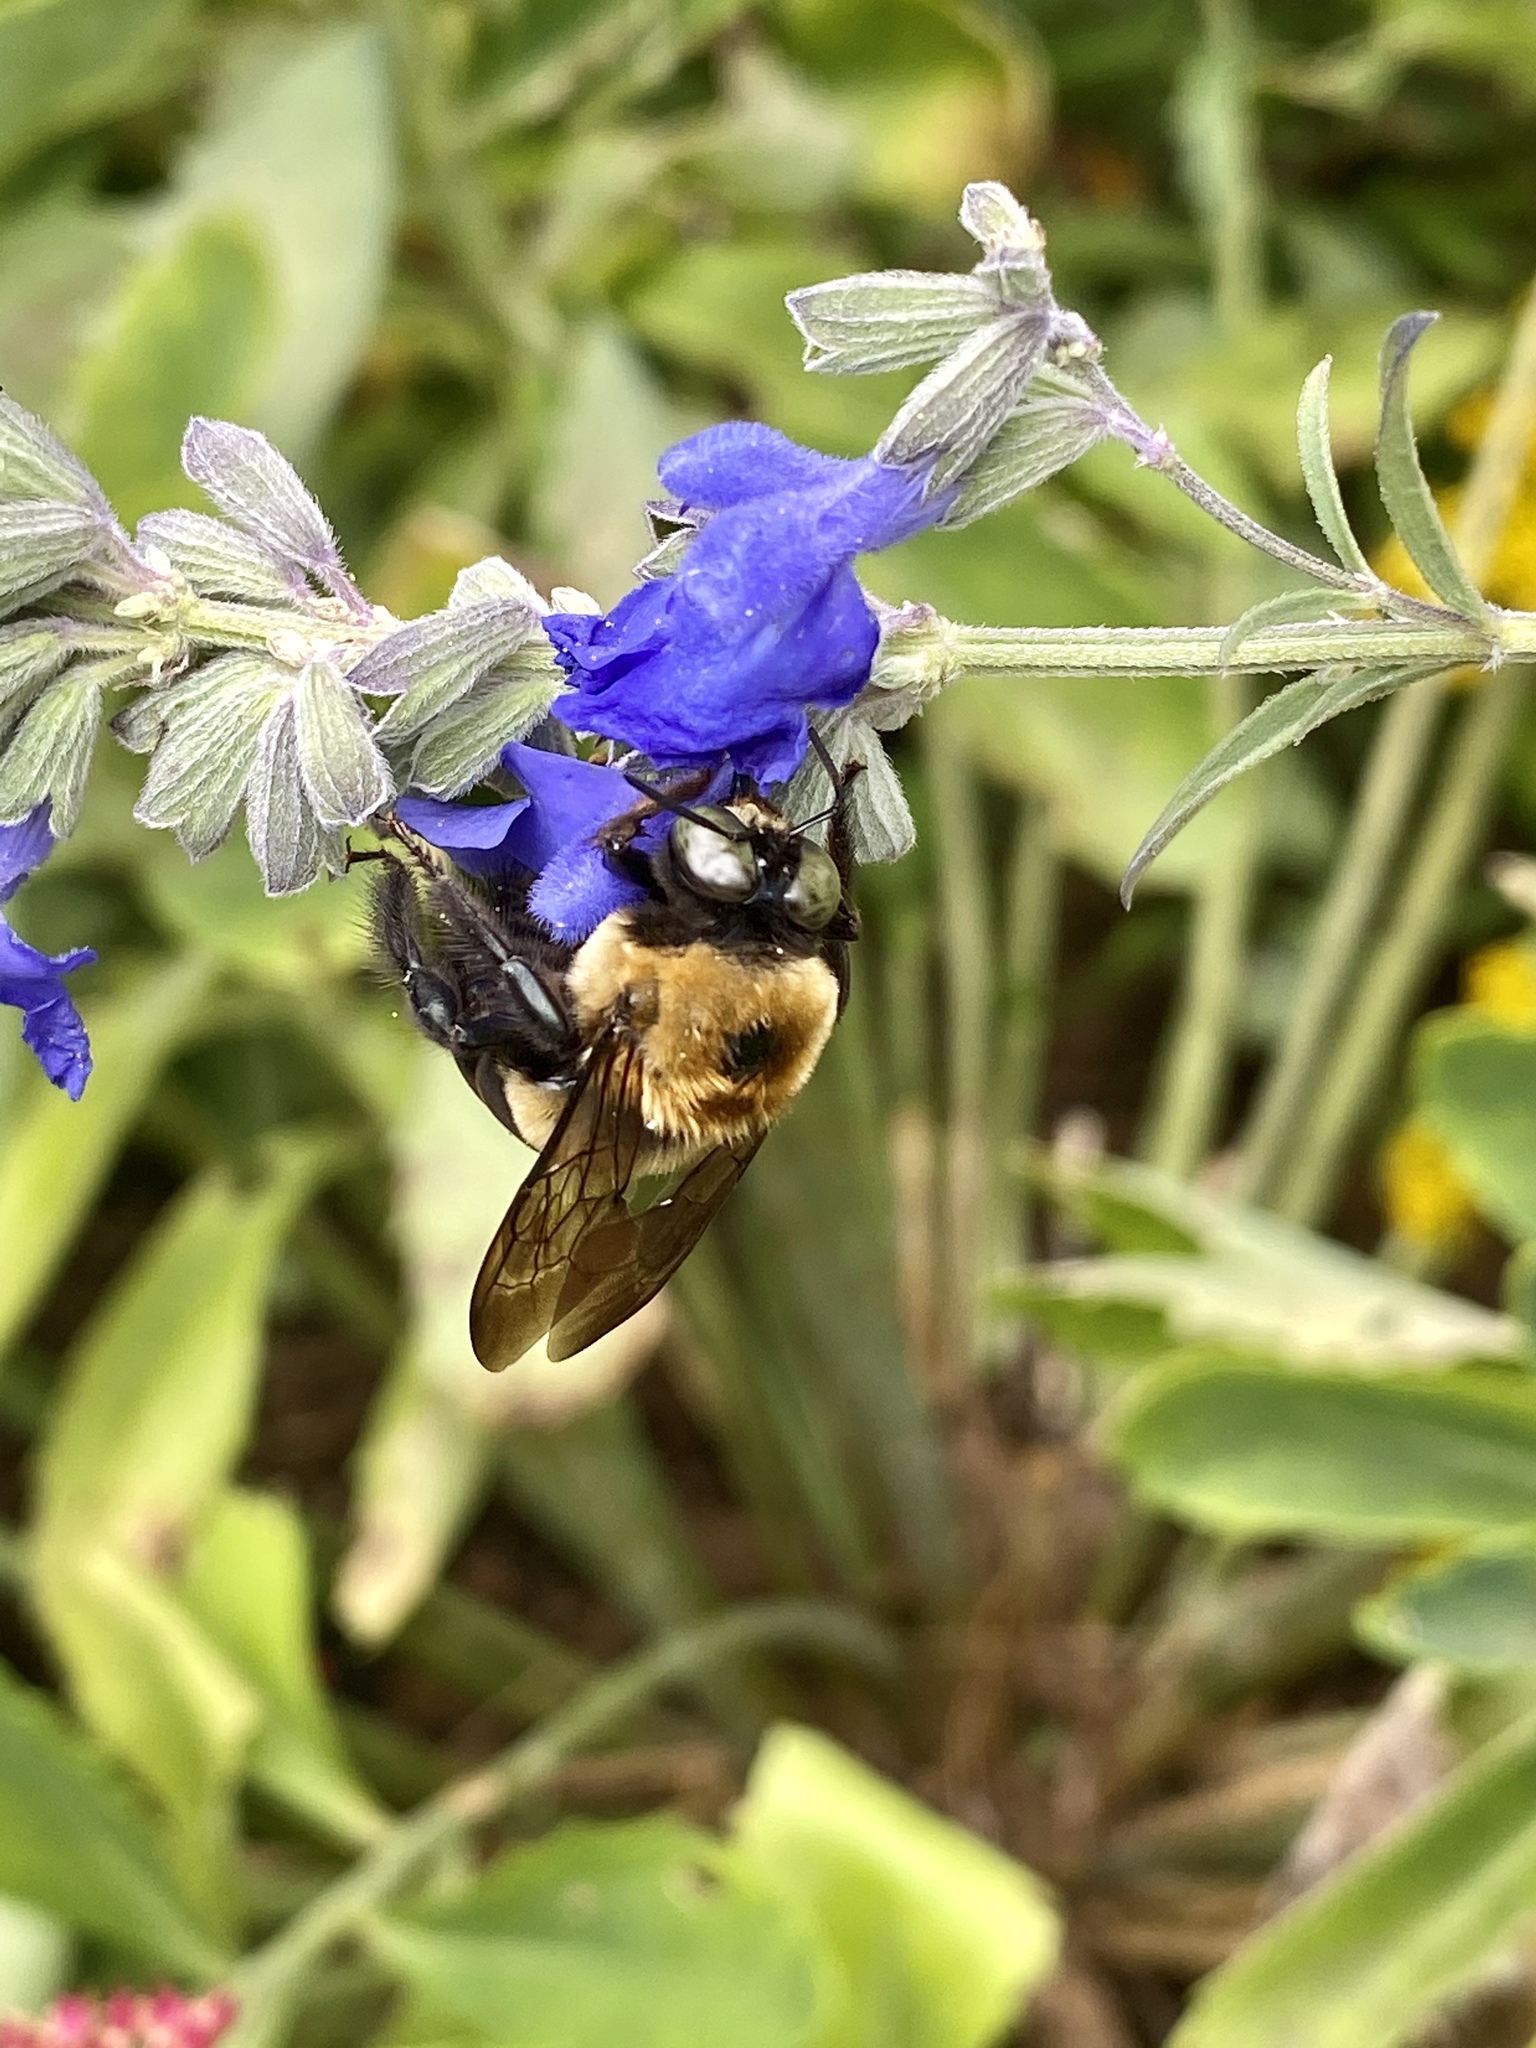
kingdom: Animalia
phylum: Arthropoda
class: Insecta
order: Hymenoptera
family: Apidae
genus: Xylocopa
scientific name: Xylocopa virginica
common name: Carpenter bee
